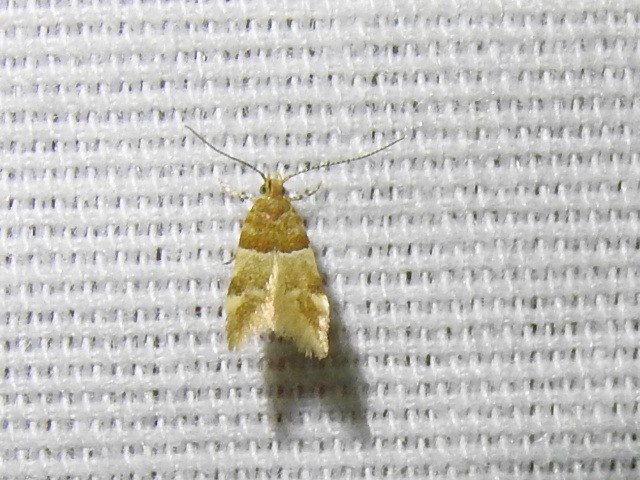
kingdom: Animalia
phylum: Arthropoda
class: Insecta
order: Lepidoptera
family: Gelechiidae
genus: Theisoa
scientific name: Theisoa constrictella
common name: Constricted twirler
